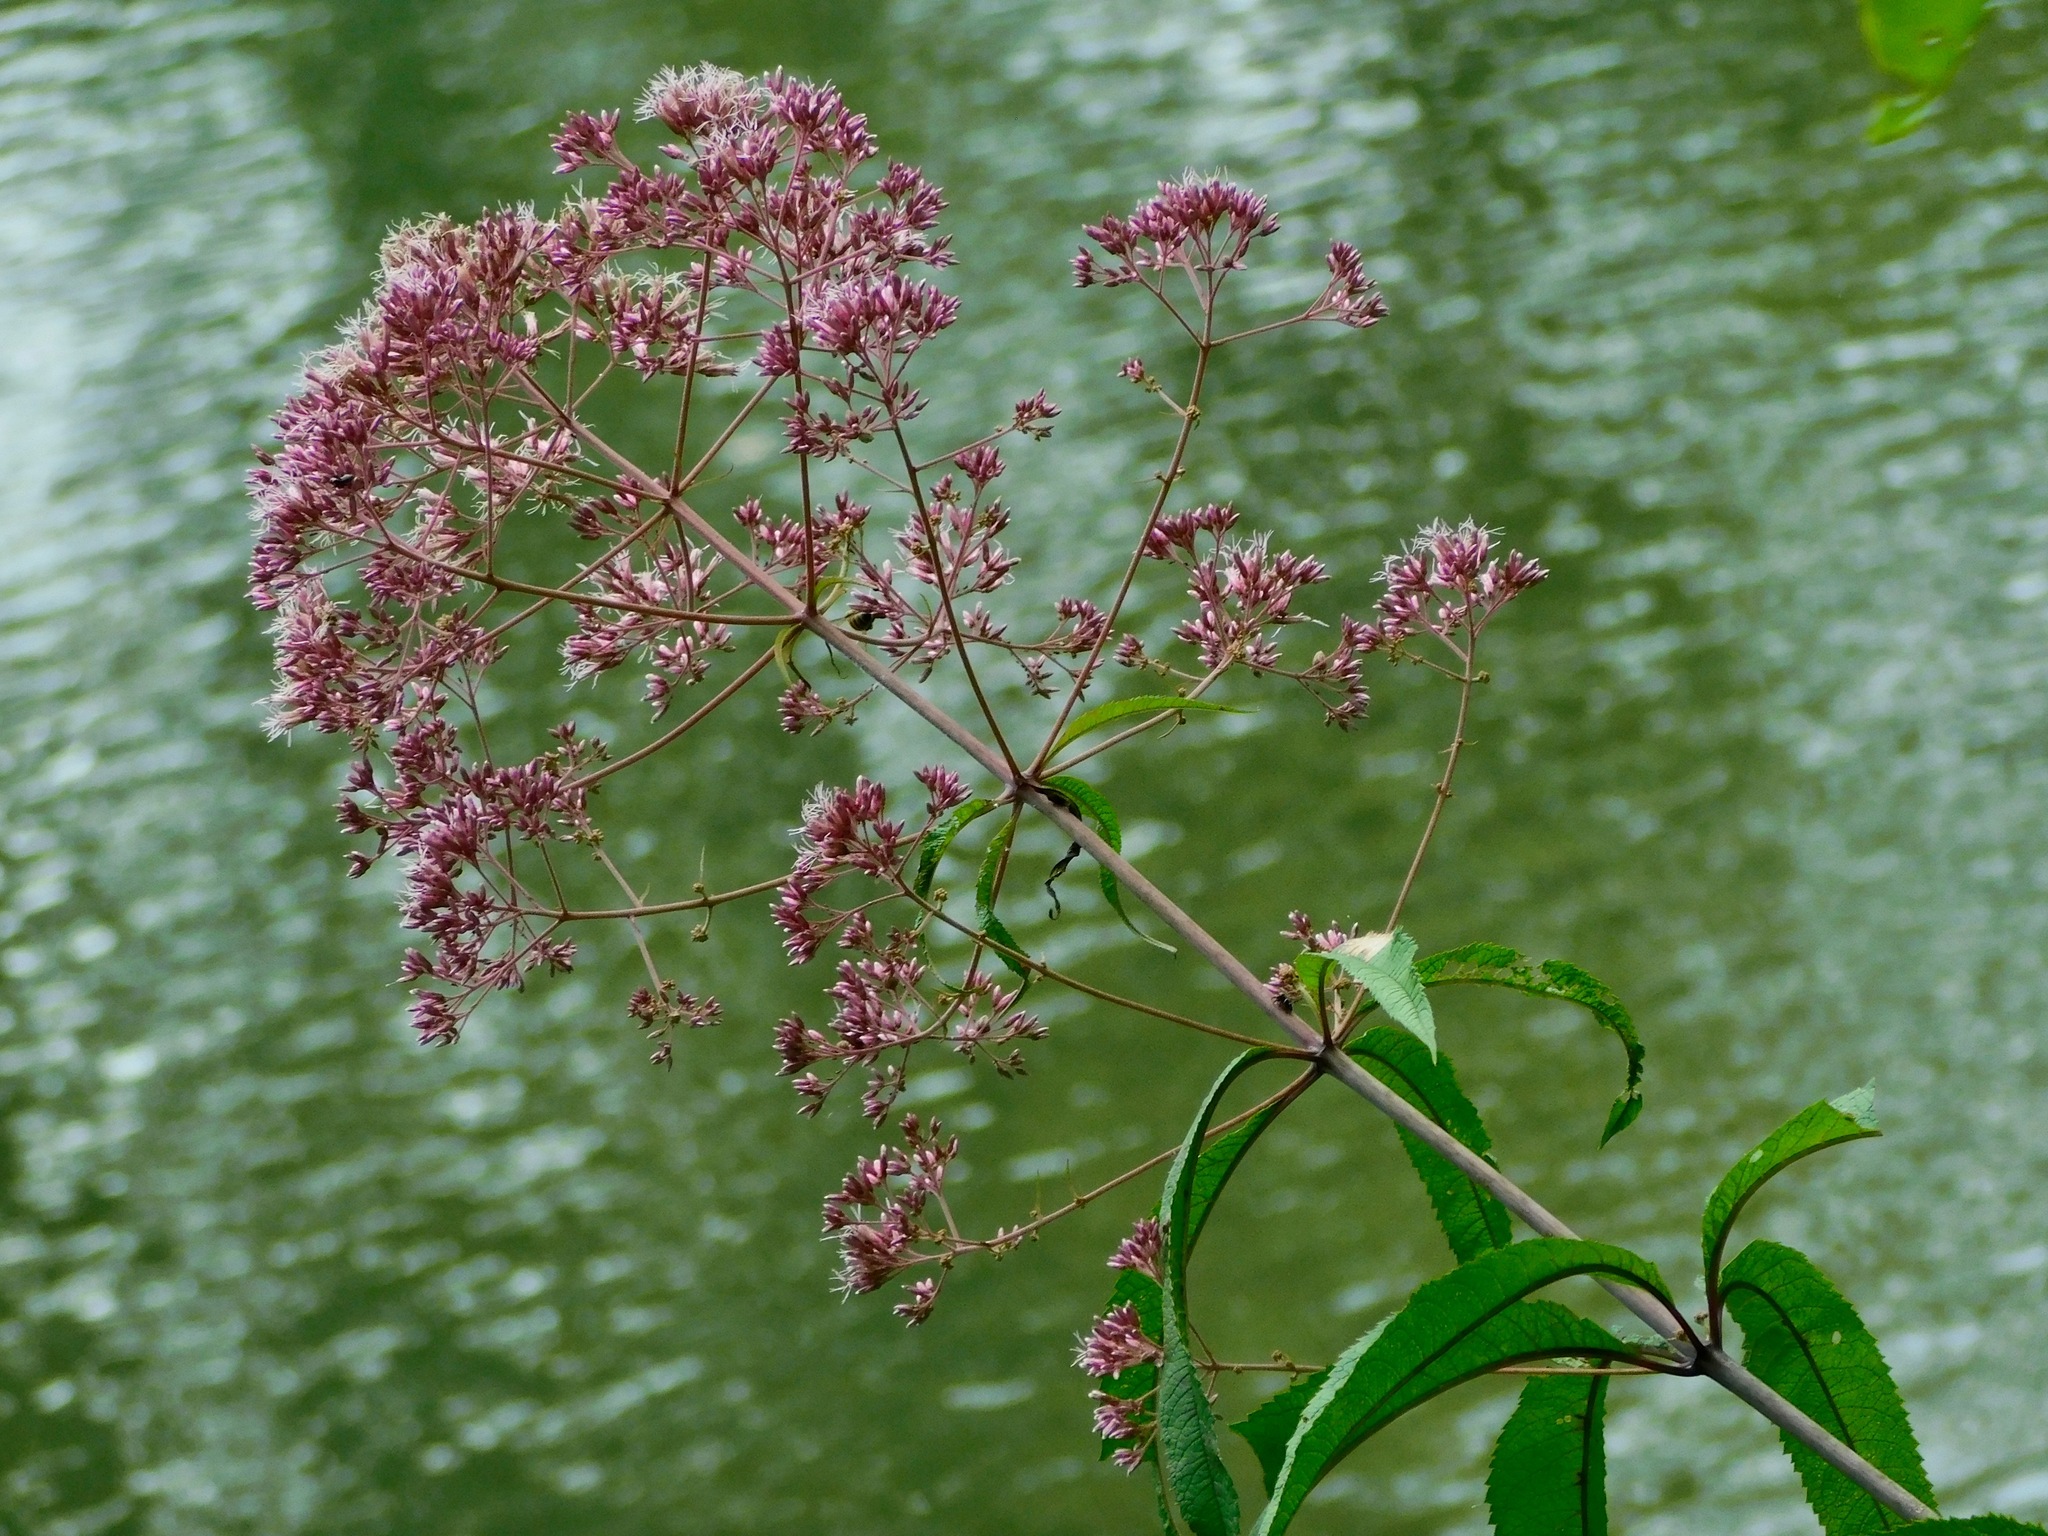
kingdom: Plantae
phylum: Tracheophyta
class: Magnoliopsida
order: Asterales
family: Asteraceae
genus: Eutrochium
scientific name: Eutrochium fistulosum
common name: Trumpetweed
